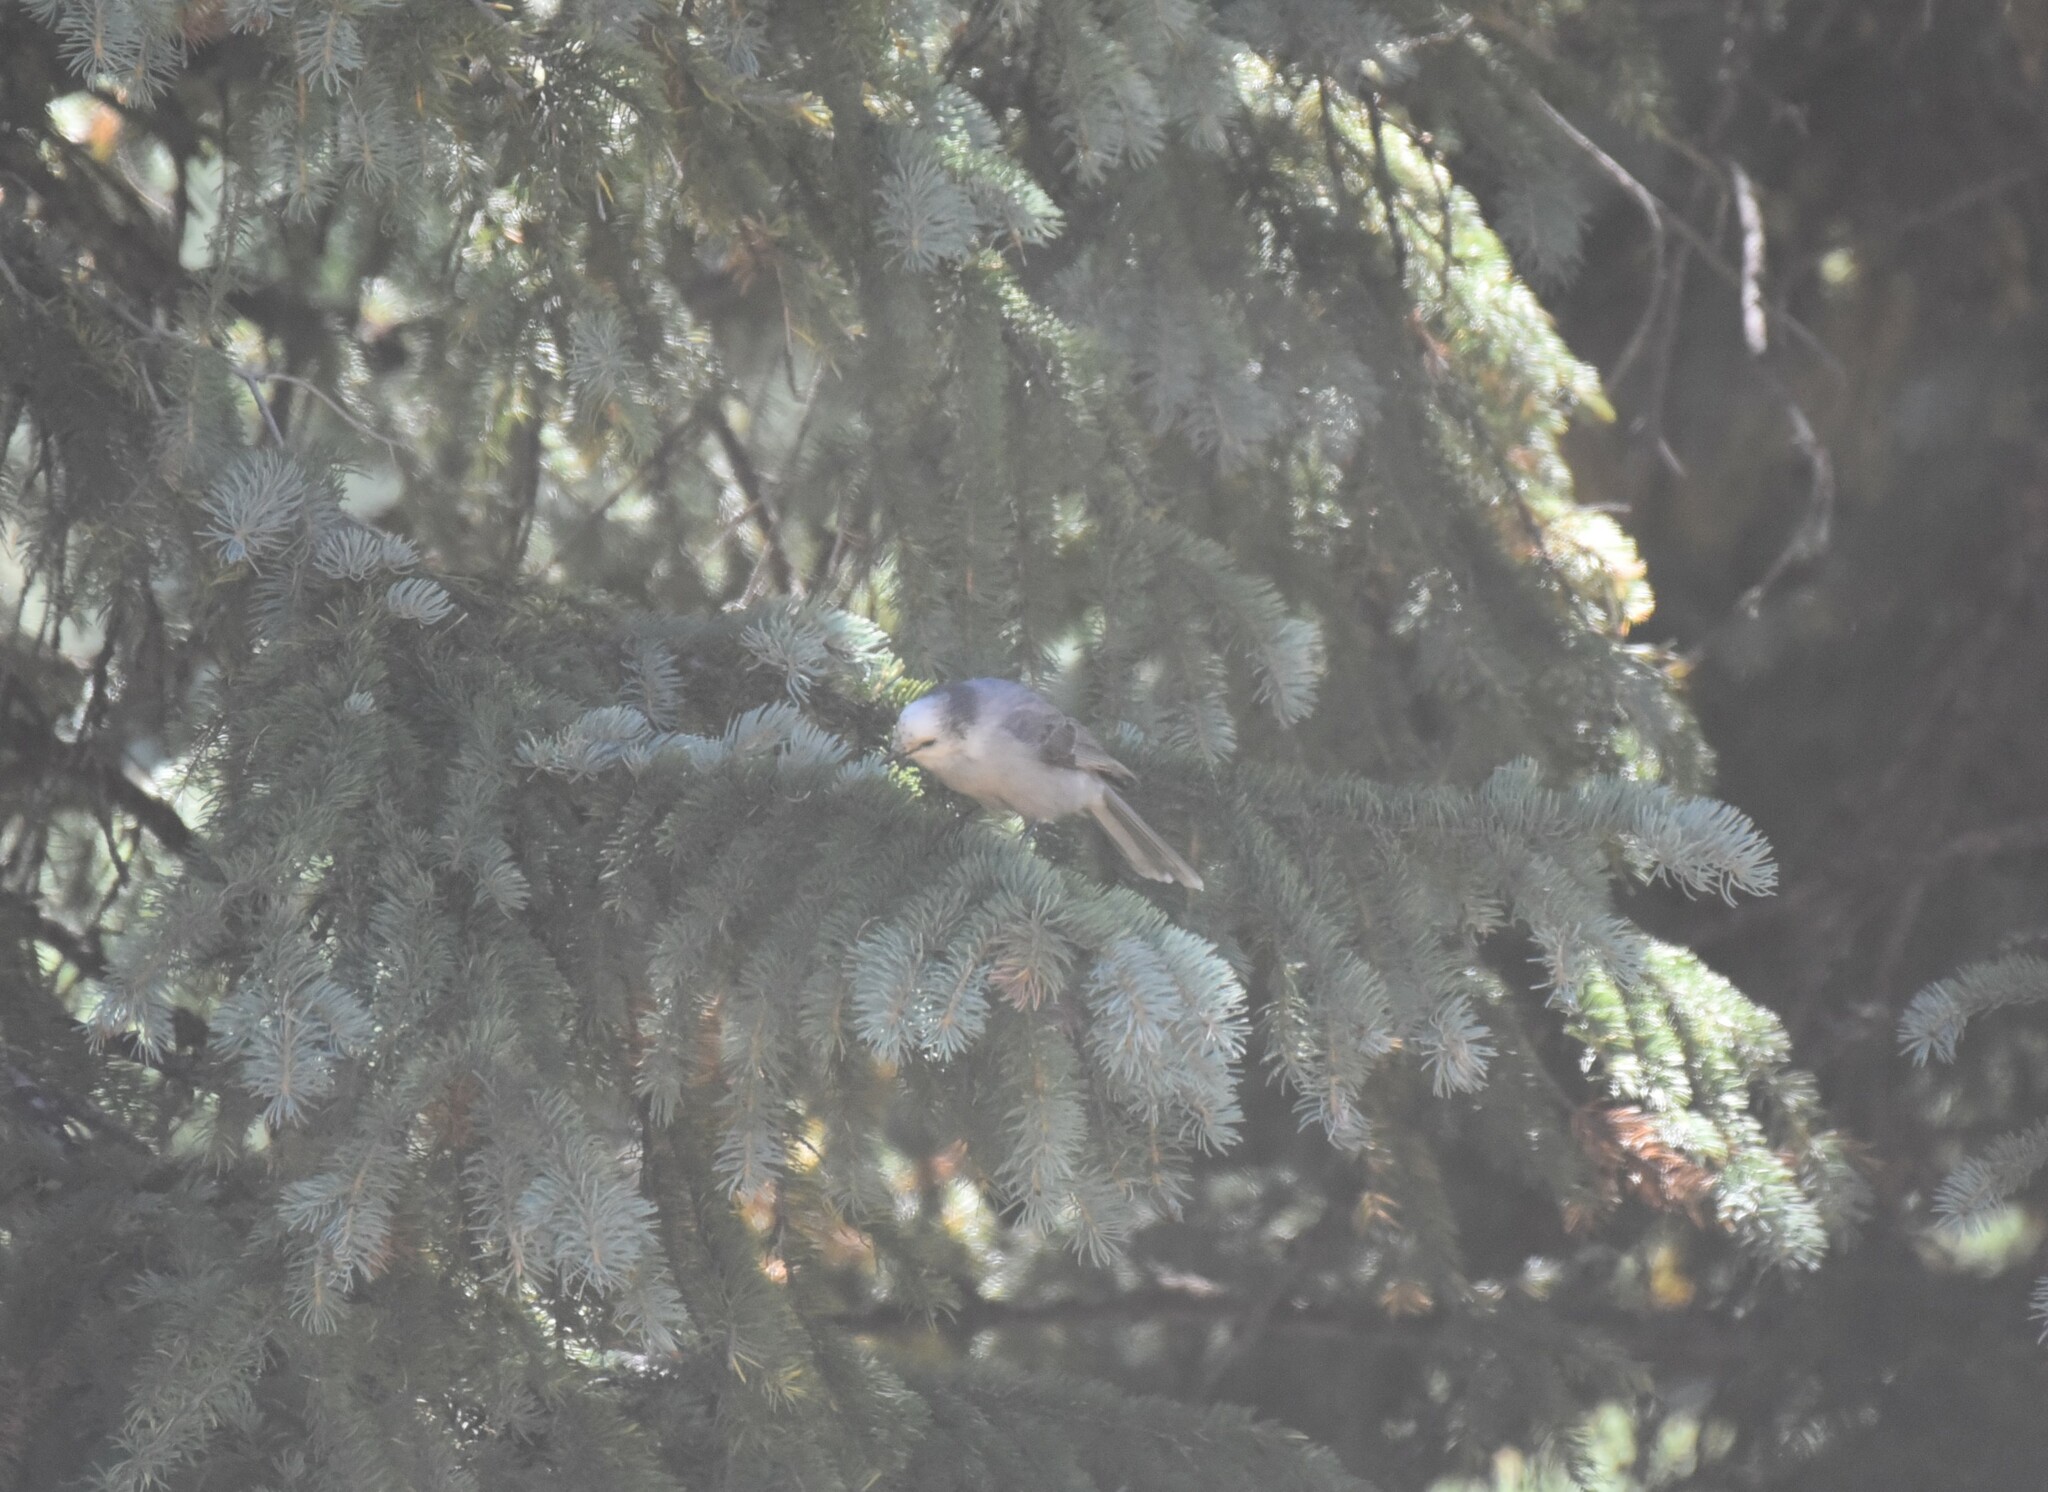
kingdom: Animalia
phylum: Chordata
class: Aves
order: Passeriformes
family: Corvidae
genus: Perisoreus
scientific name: Perisoreus canadensis
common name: Gray jay
